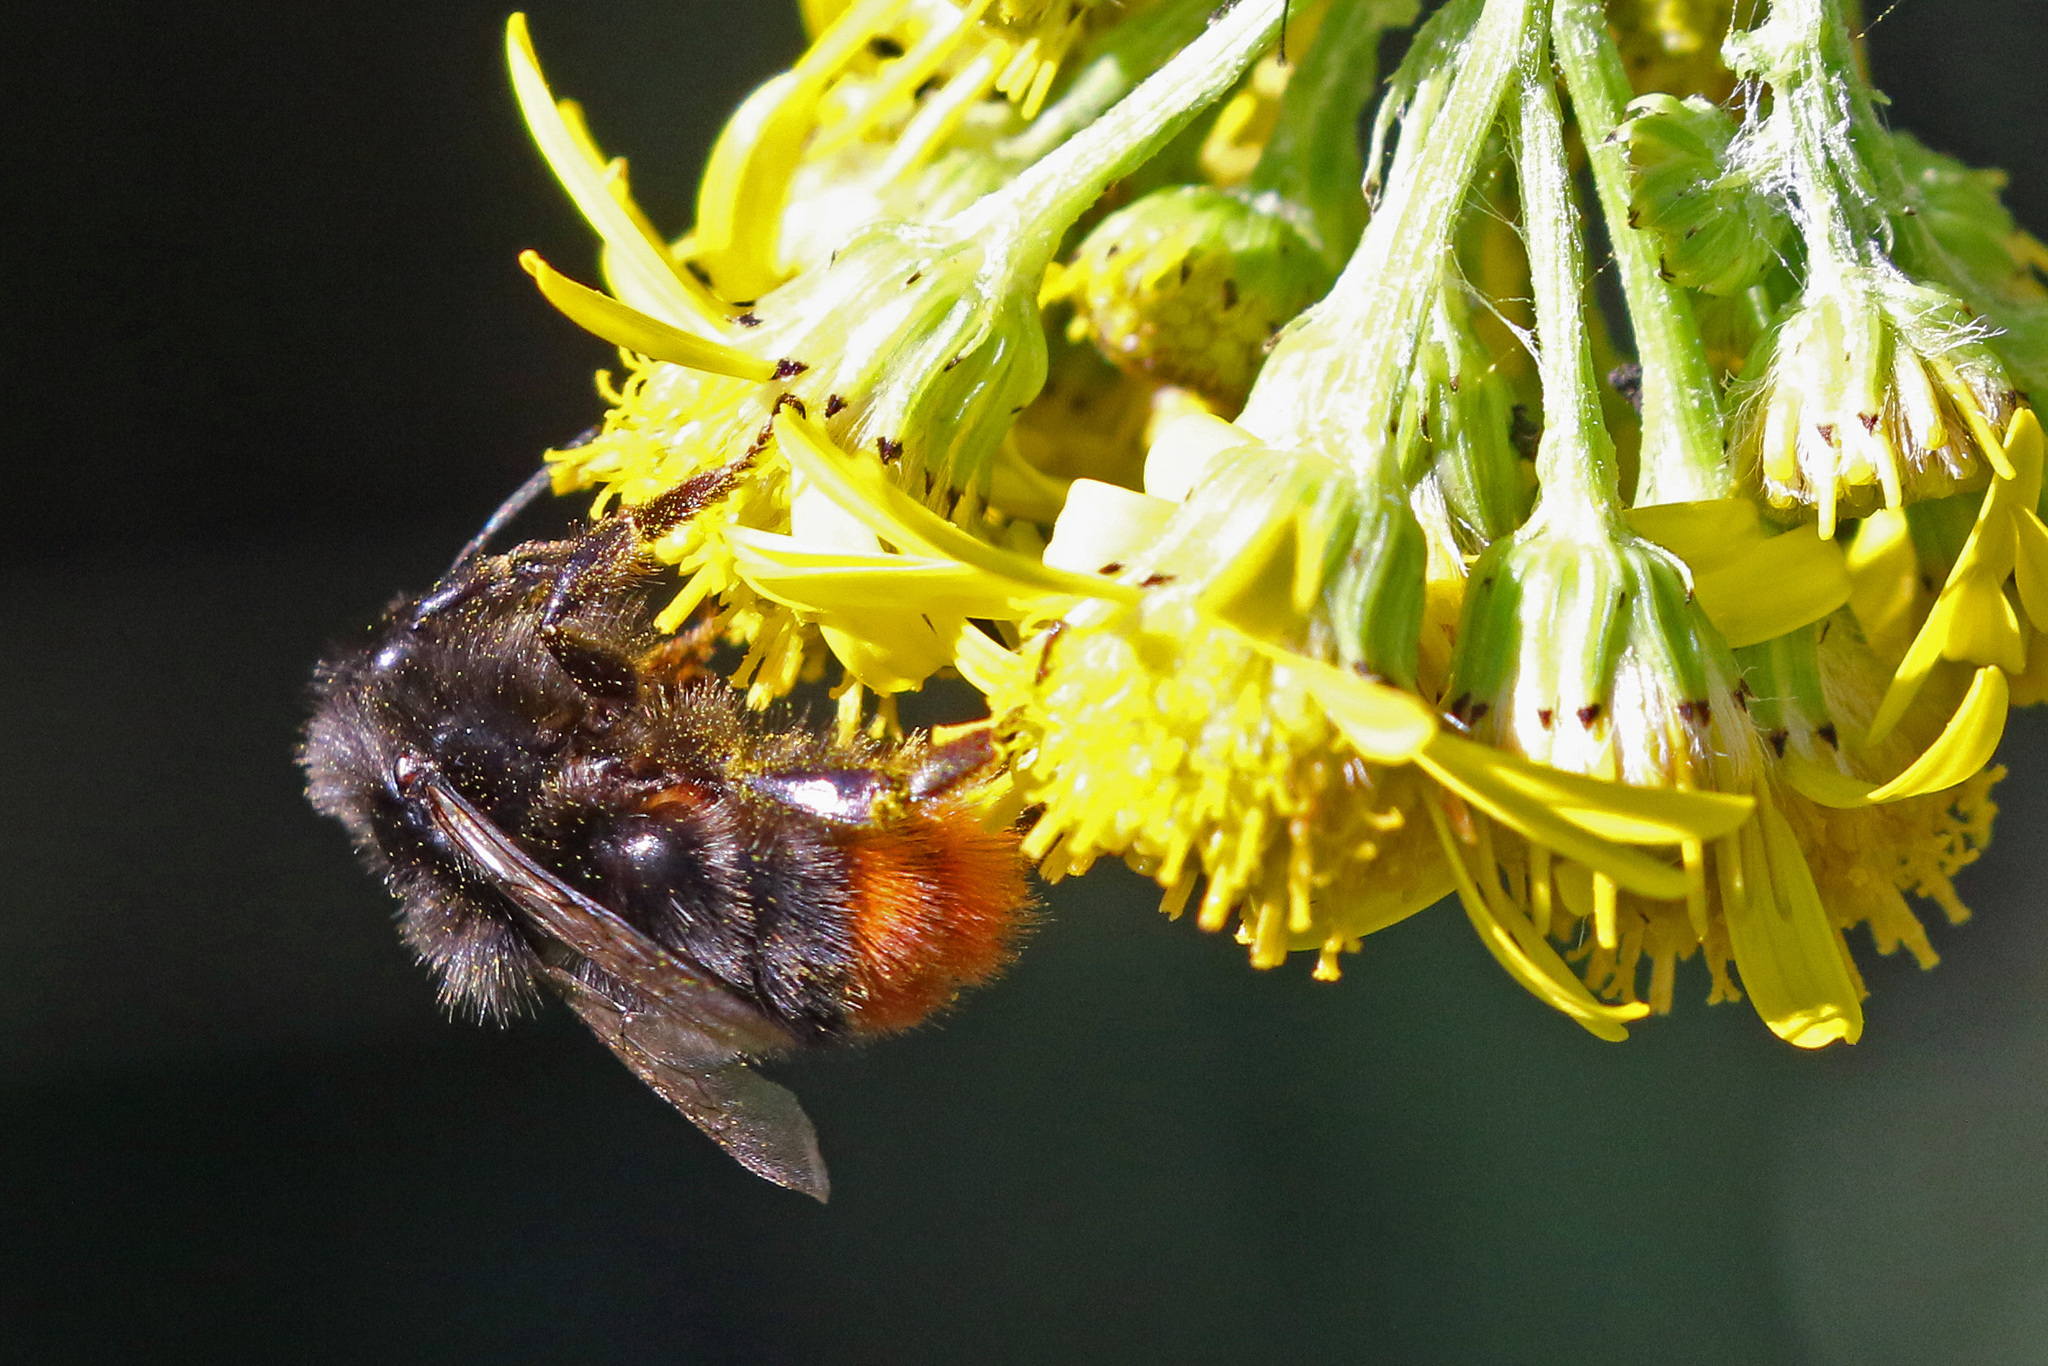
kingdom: Animalia
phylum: Arthropoda
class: Insecta
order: Hymenoptera
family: Apidae
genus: Bombus
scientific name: Bombus lapidarius
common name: Large red-tailed humble-bee
